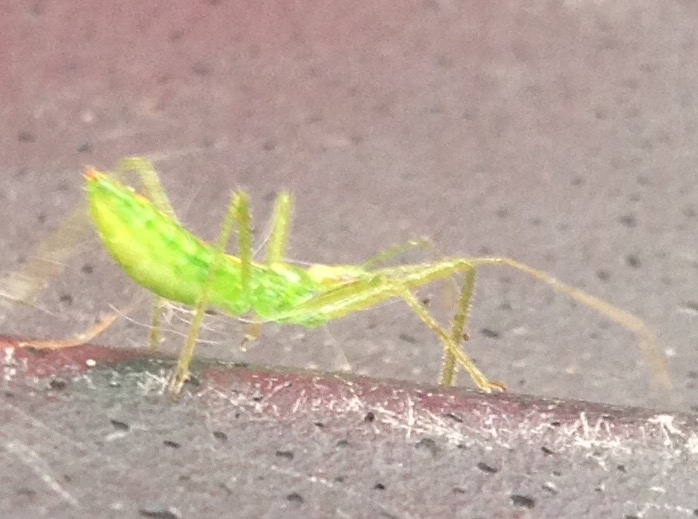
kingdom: Animalia
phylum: Arthropoda
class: Insecta
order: Hemiptera
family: Reduviidae
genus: Zelus
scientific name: Zelus luridus
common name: Pale green assassin bug
